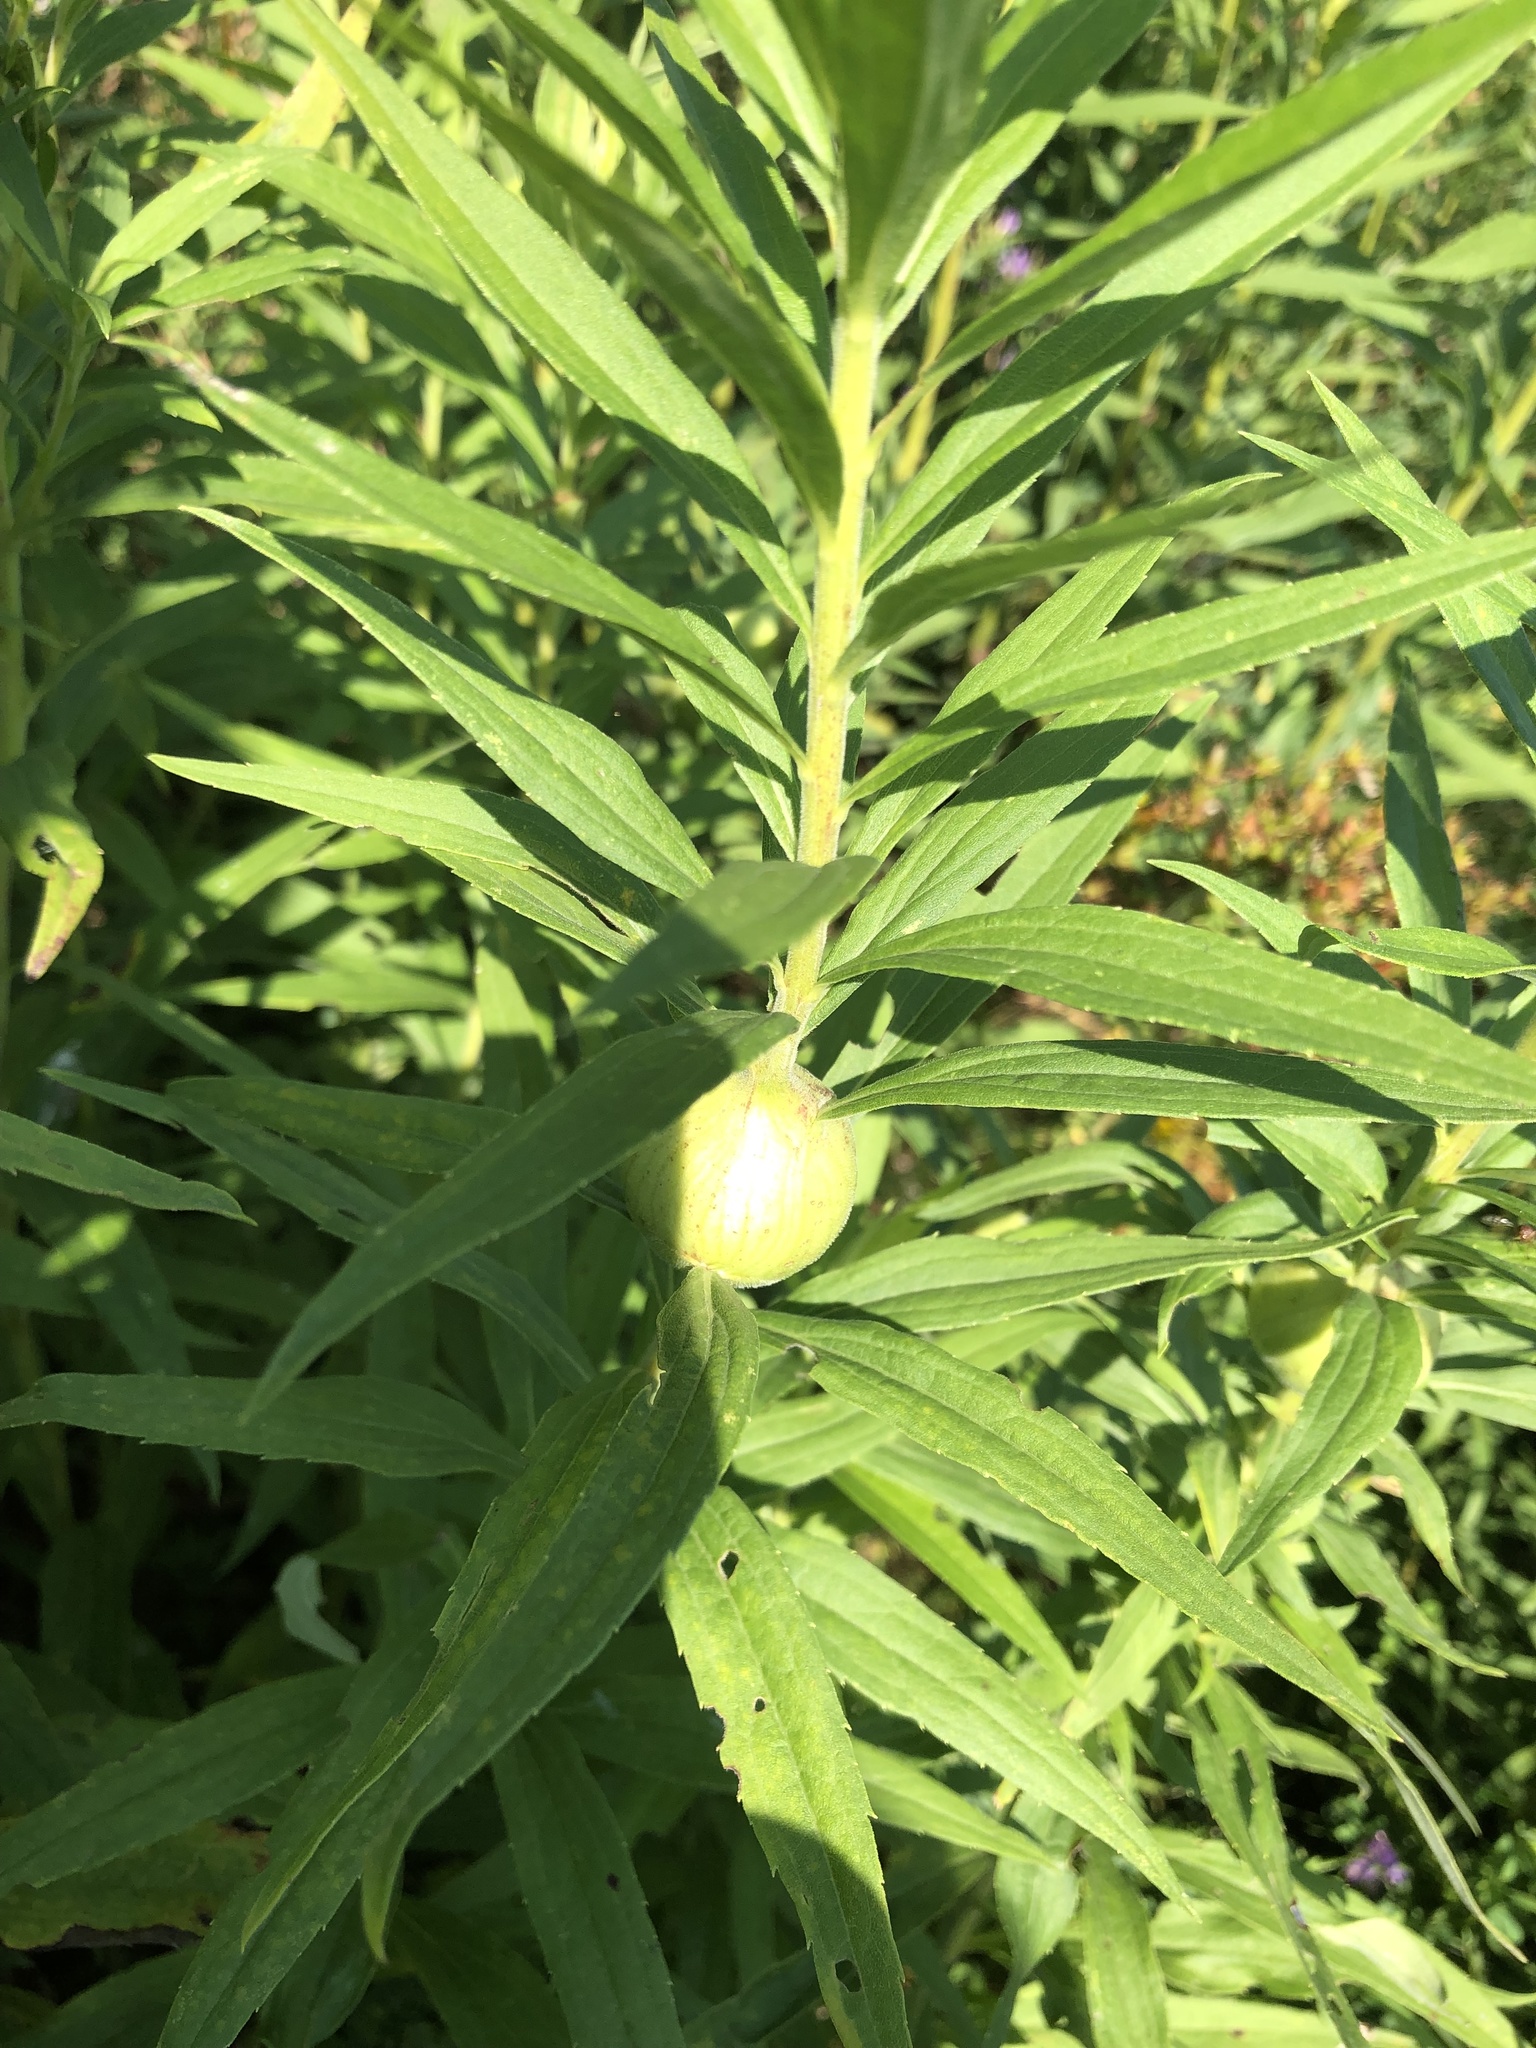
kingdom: Animalia
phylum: Arthropoda
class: Insecta
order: Diptera
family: Tephritidae
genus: Eurosta
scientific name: Eurosta solidaginis
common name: Goldenrod gall fly
